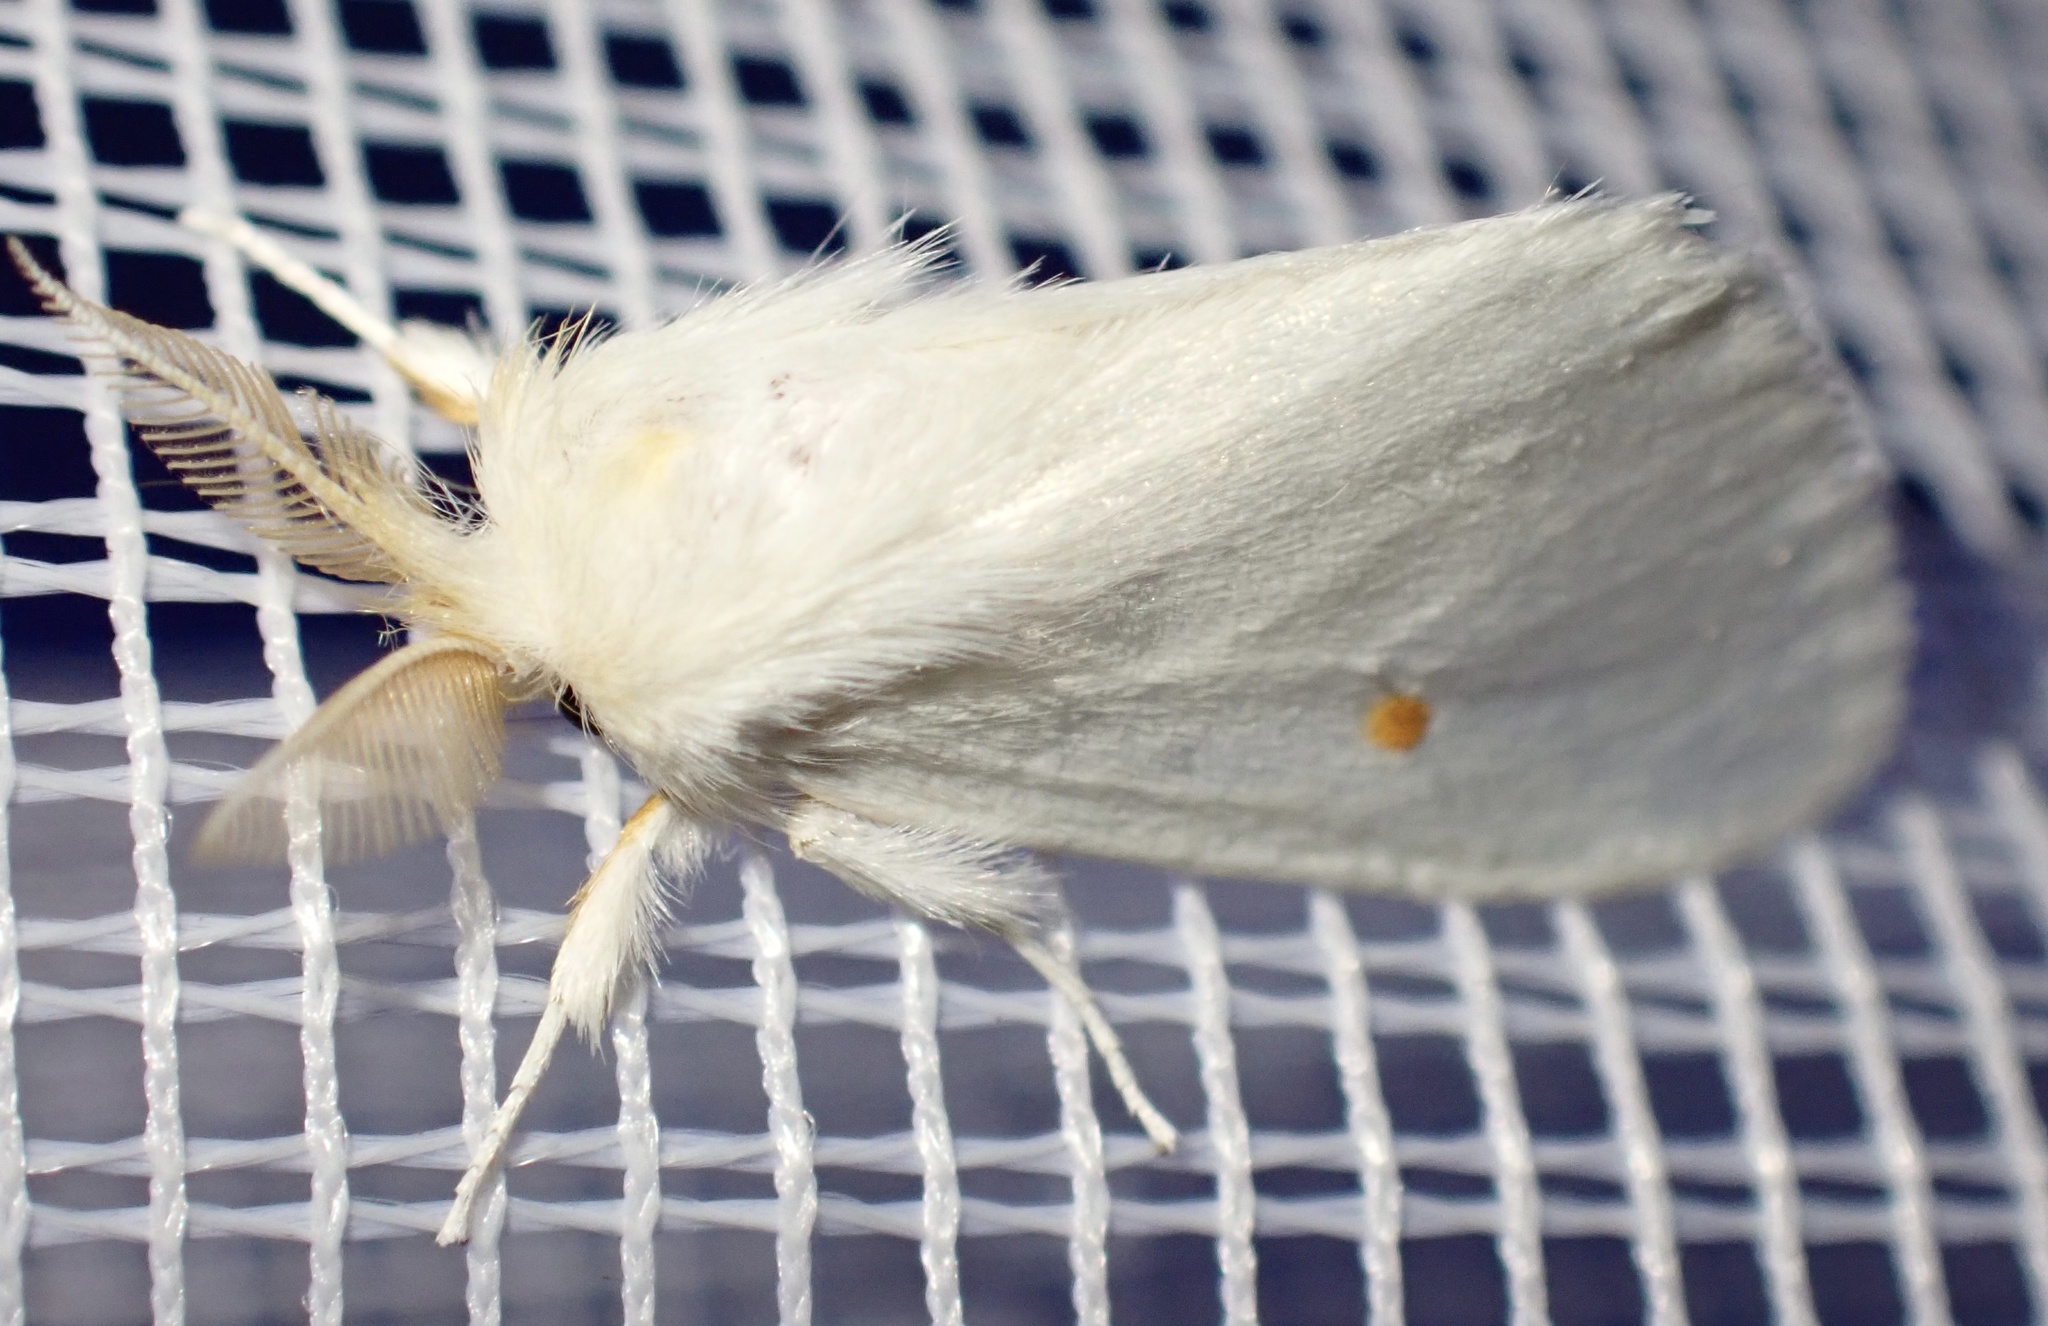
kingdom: Animalia
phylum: Arthropoda
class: Insecta
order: Lepidoptera
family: Erebidae
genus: Pteredoa
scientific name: Pteredoa monosticta
